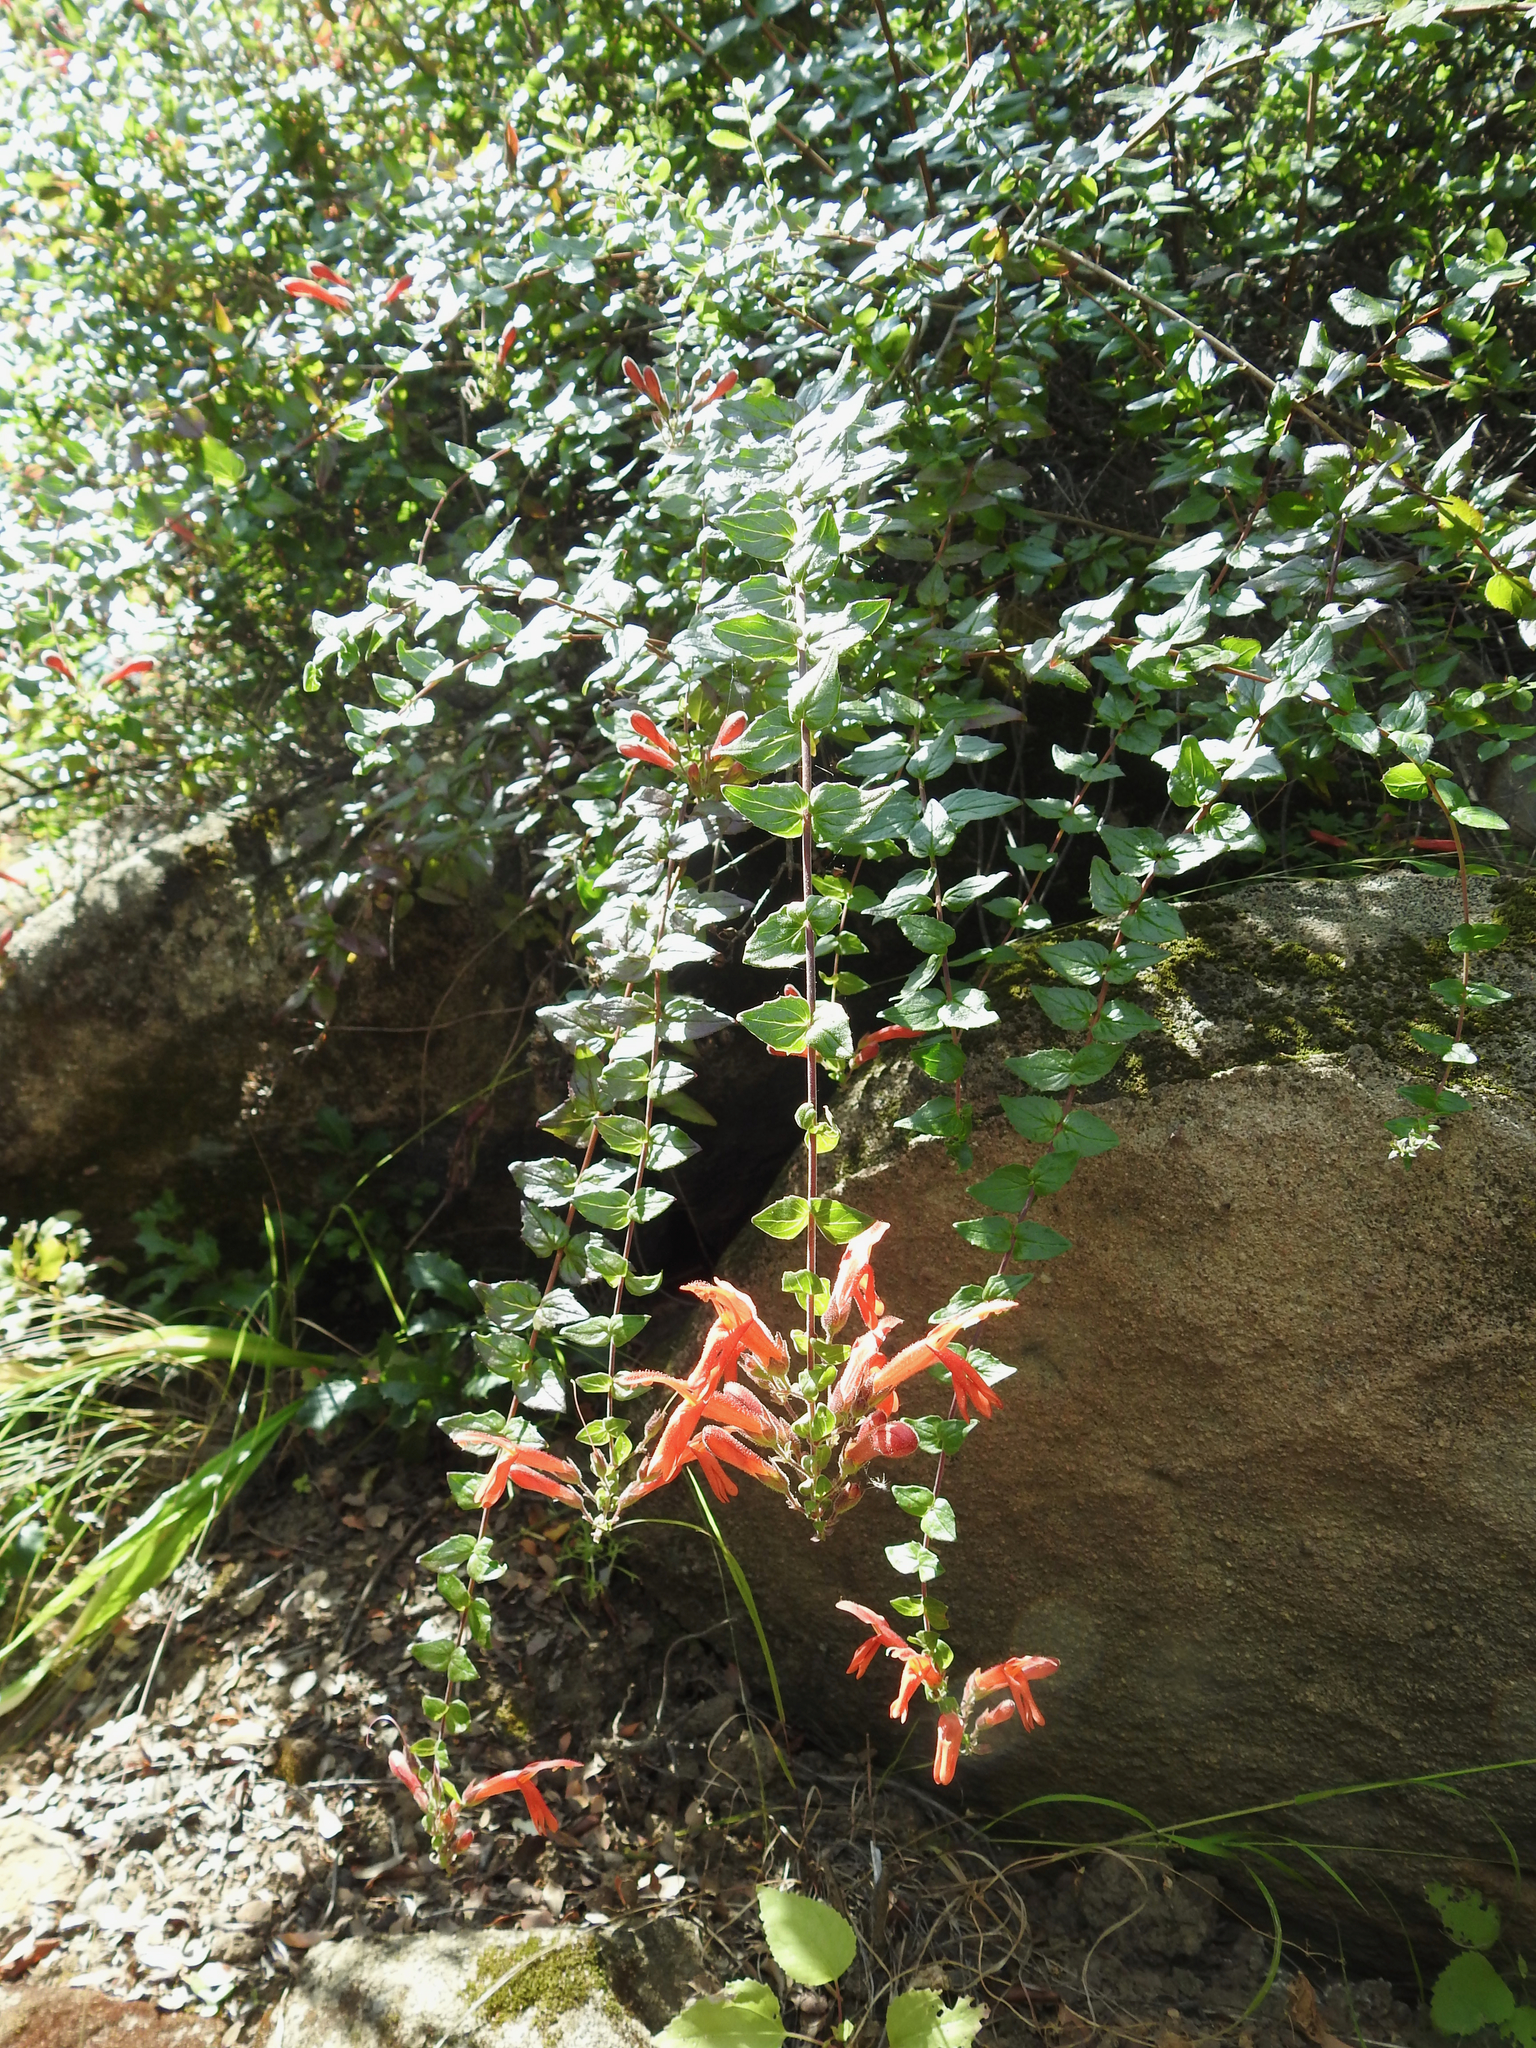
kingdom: Plantae
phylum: Tracheophyta
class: Magnoliopsida
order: Lamiales
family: Plantaginaceae
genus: Keckiella
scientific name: Keckiella cordifolia
